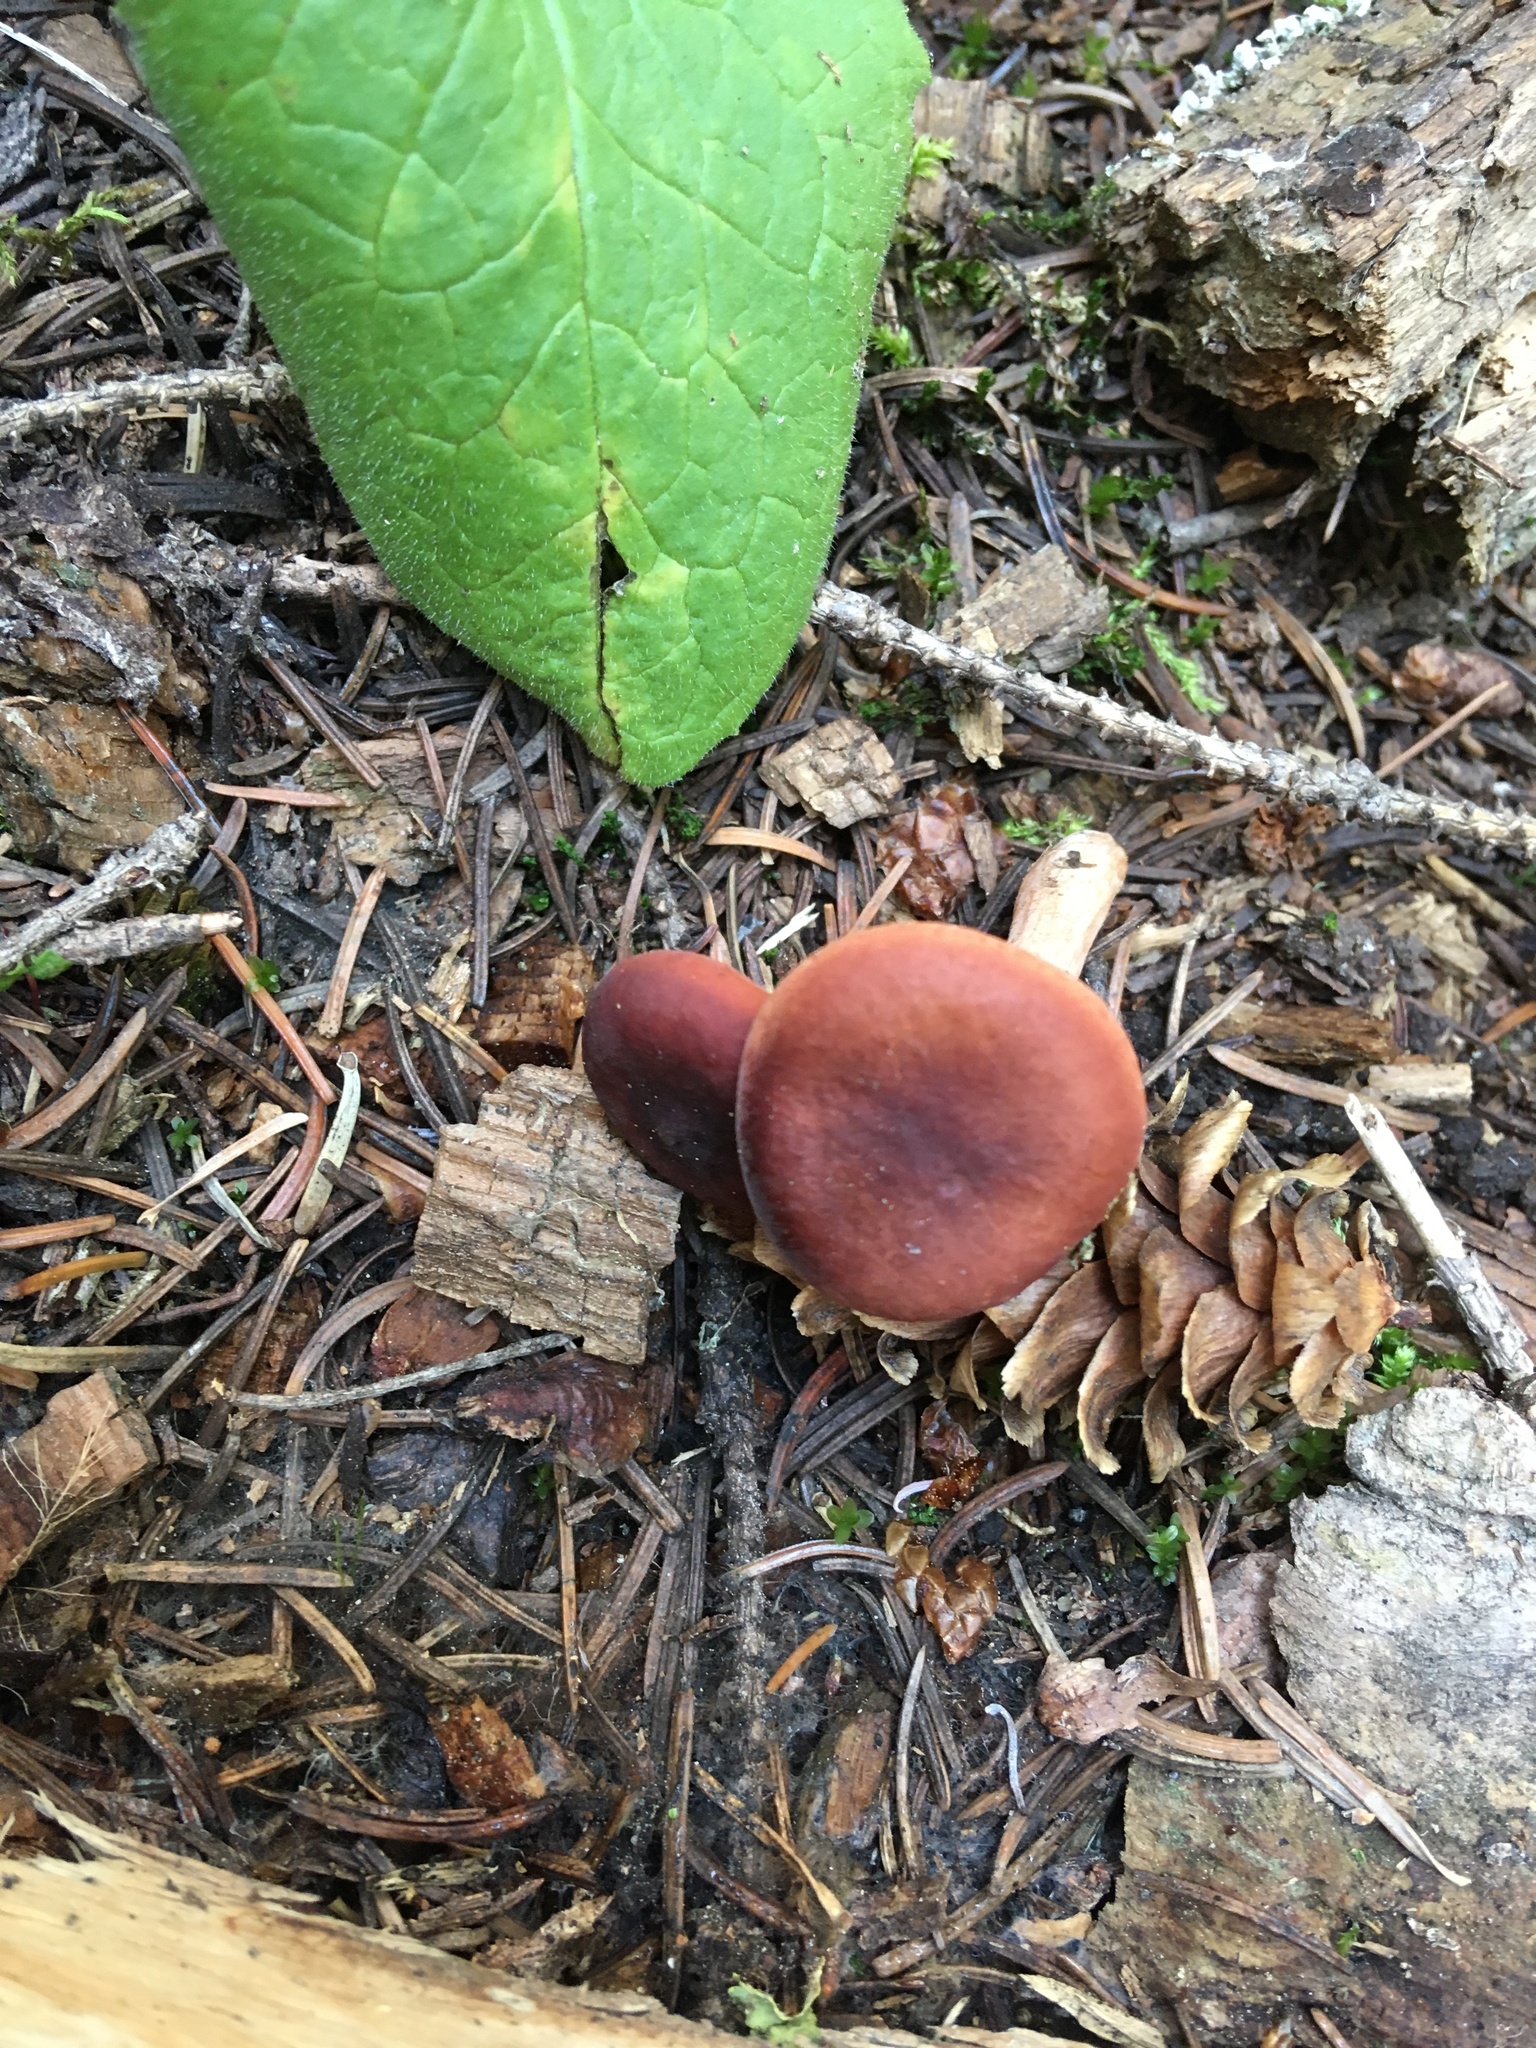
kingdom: Fungi
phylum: Basidiomycota
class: Agaricomycetes
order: Russulales
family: Russulaceae
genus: Lactarius
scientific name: Lactarius badiosanguineus
